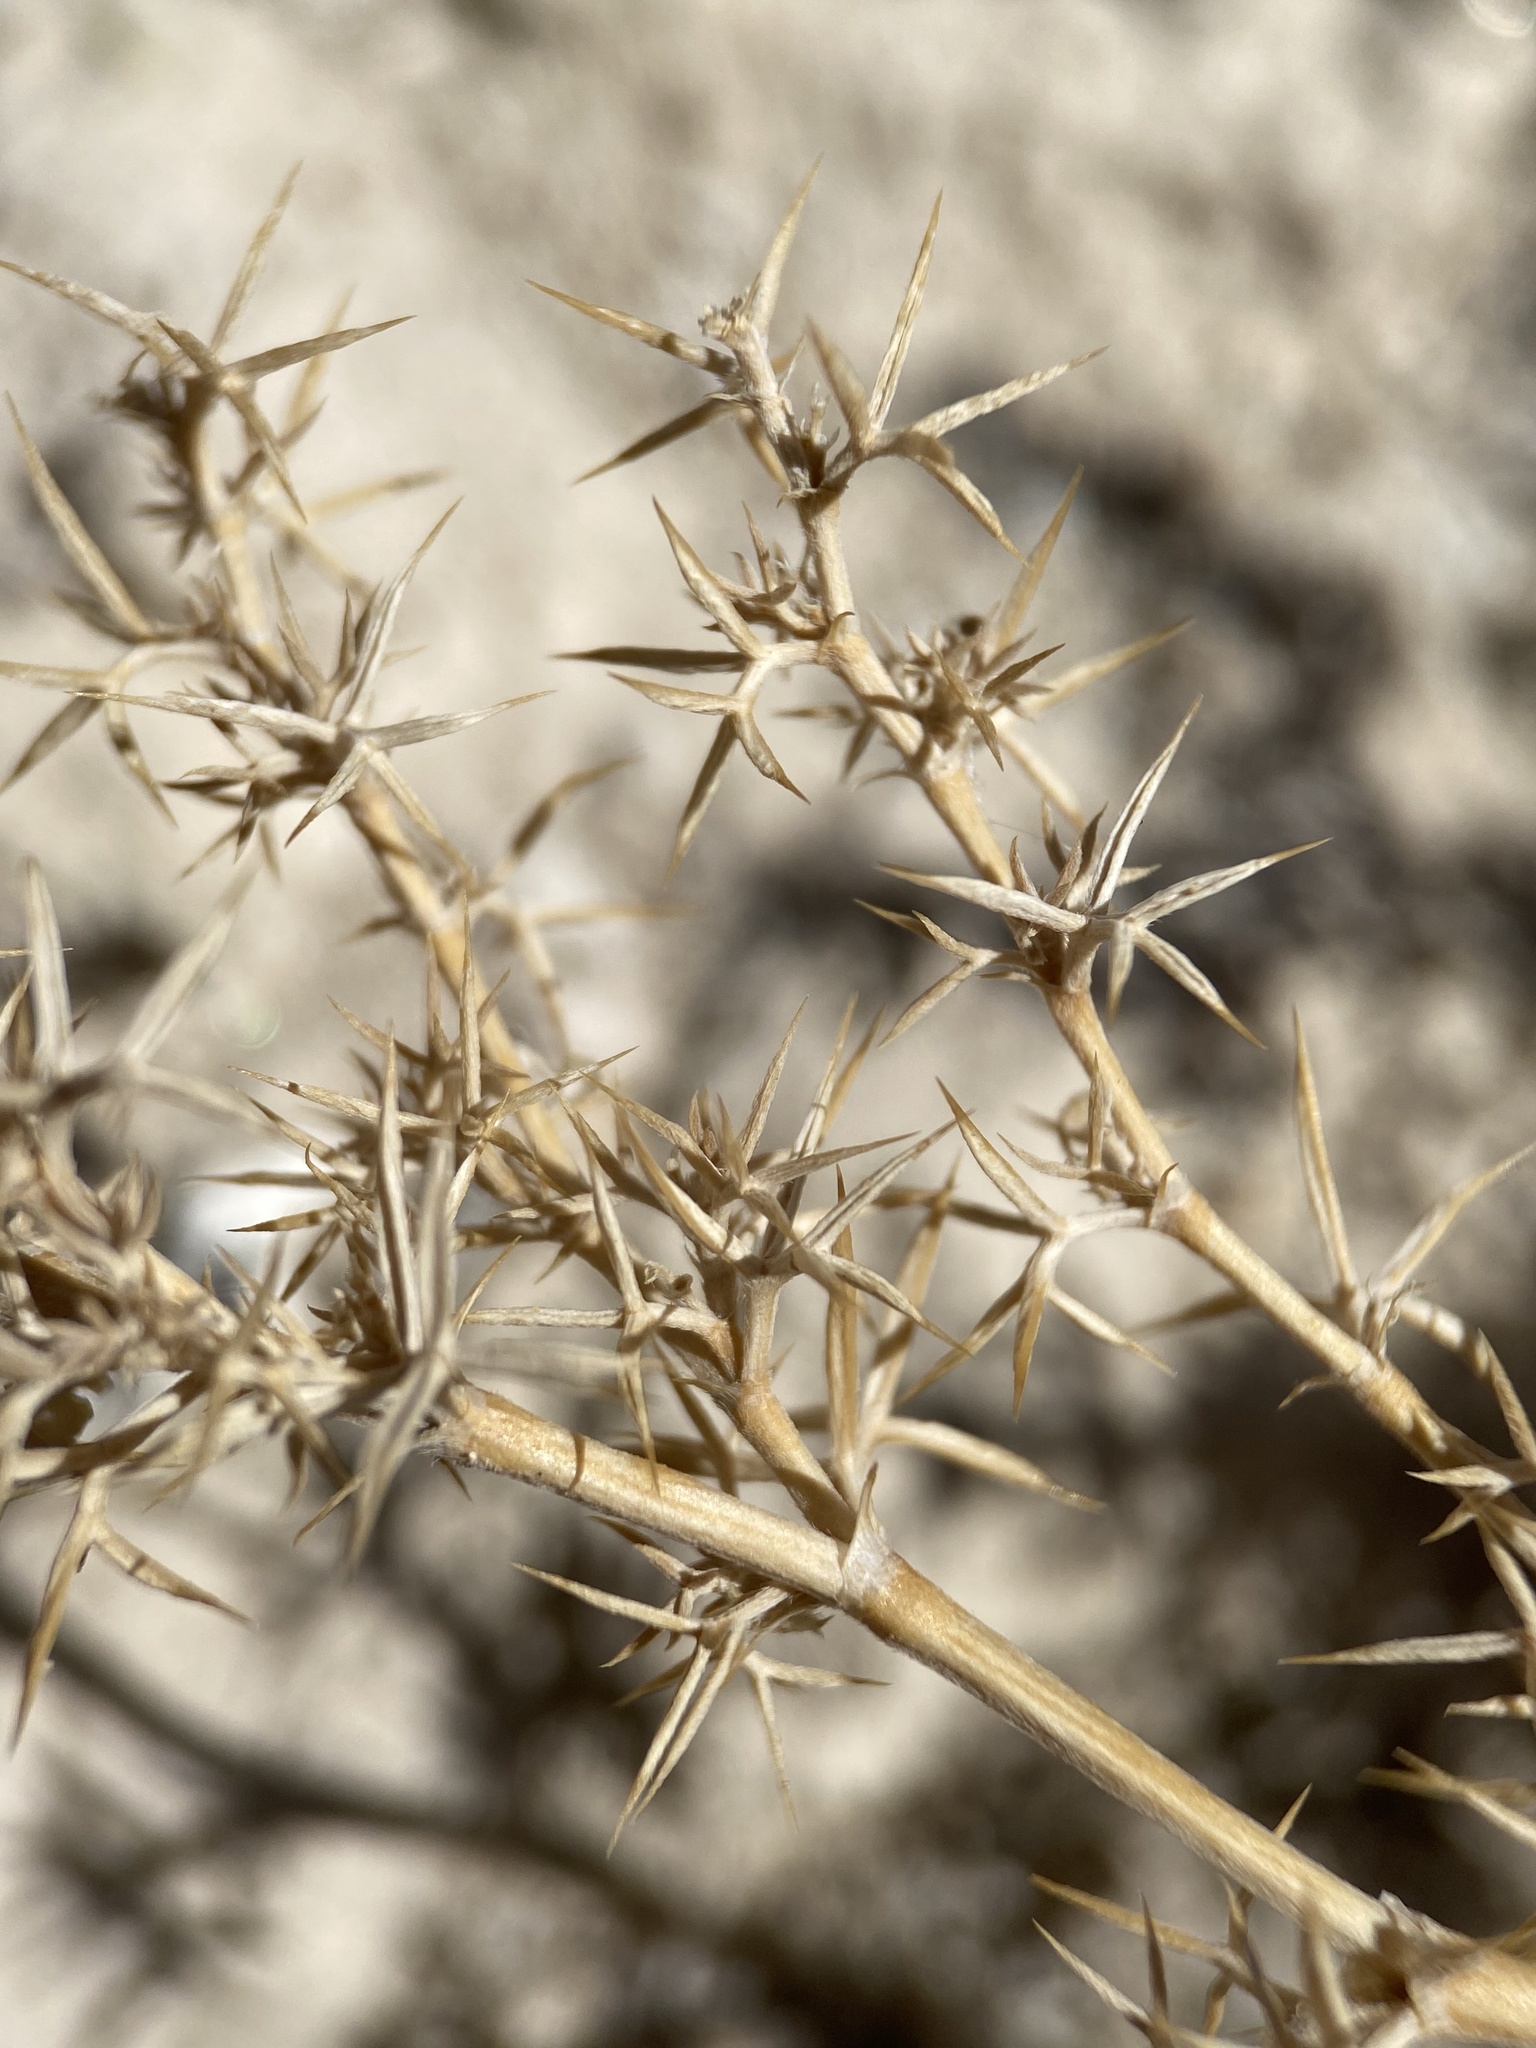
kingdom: Plantae
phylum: Tracheophyta
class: Magnoliopsida
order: Fabales
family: Fabaceae
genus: Astragalus
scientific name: Astragalus kentrophyta
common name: Prickly milk-vetch
